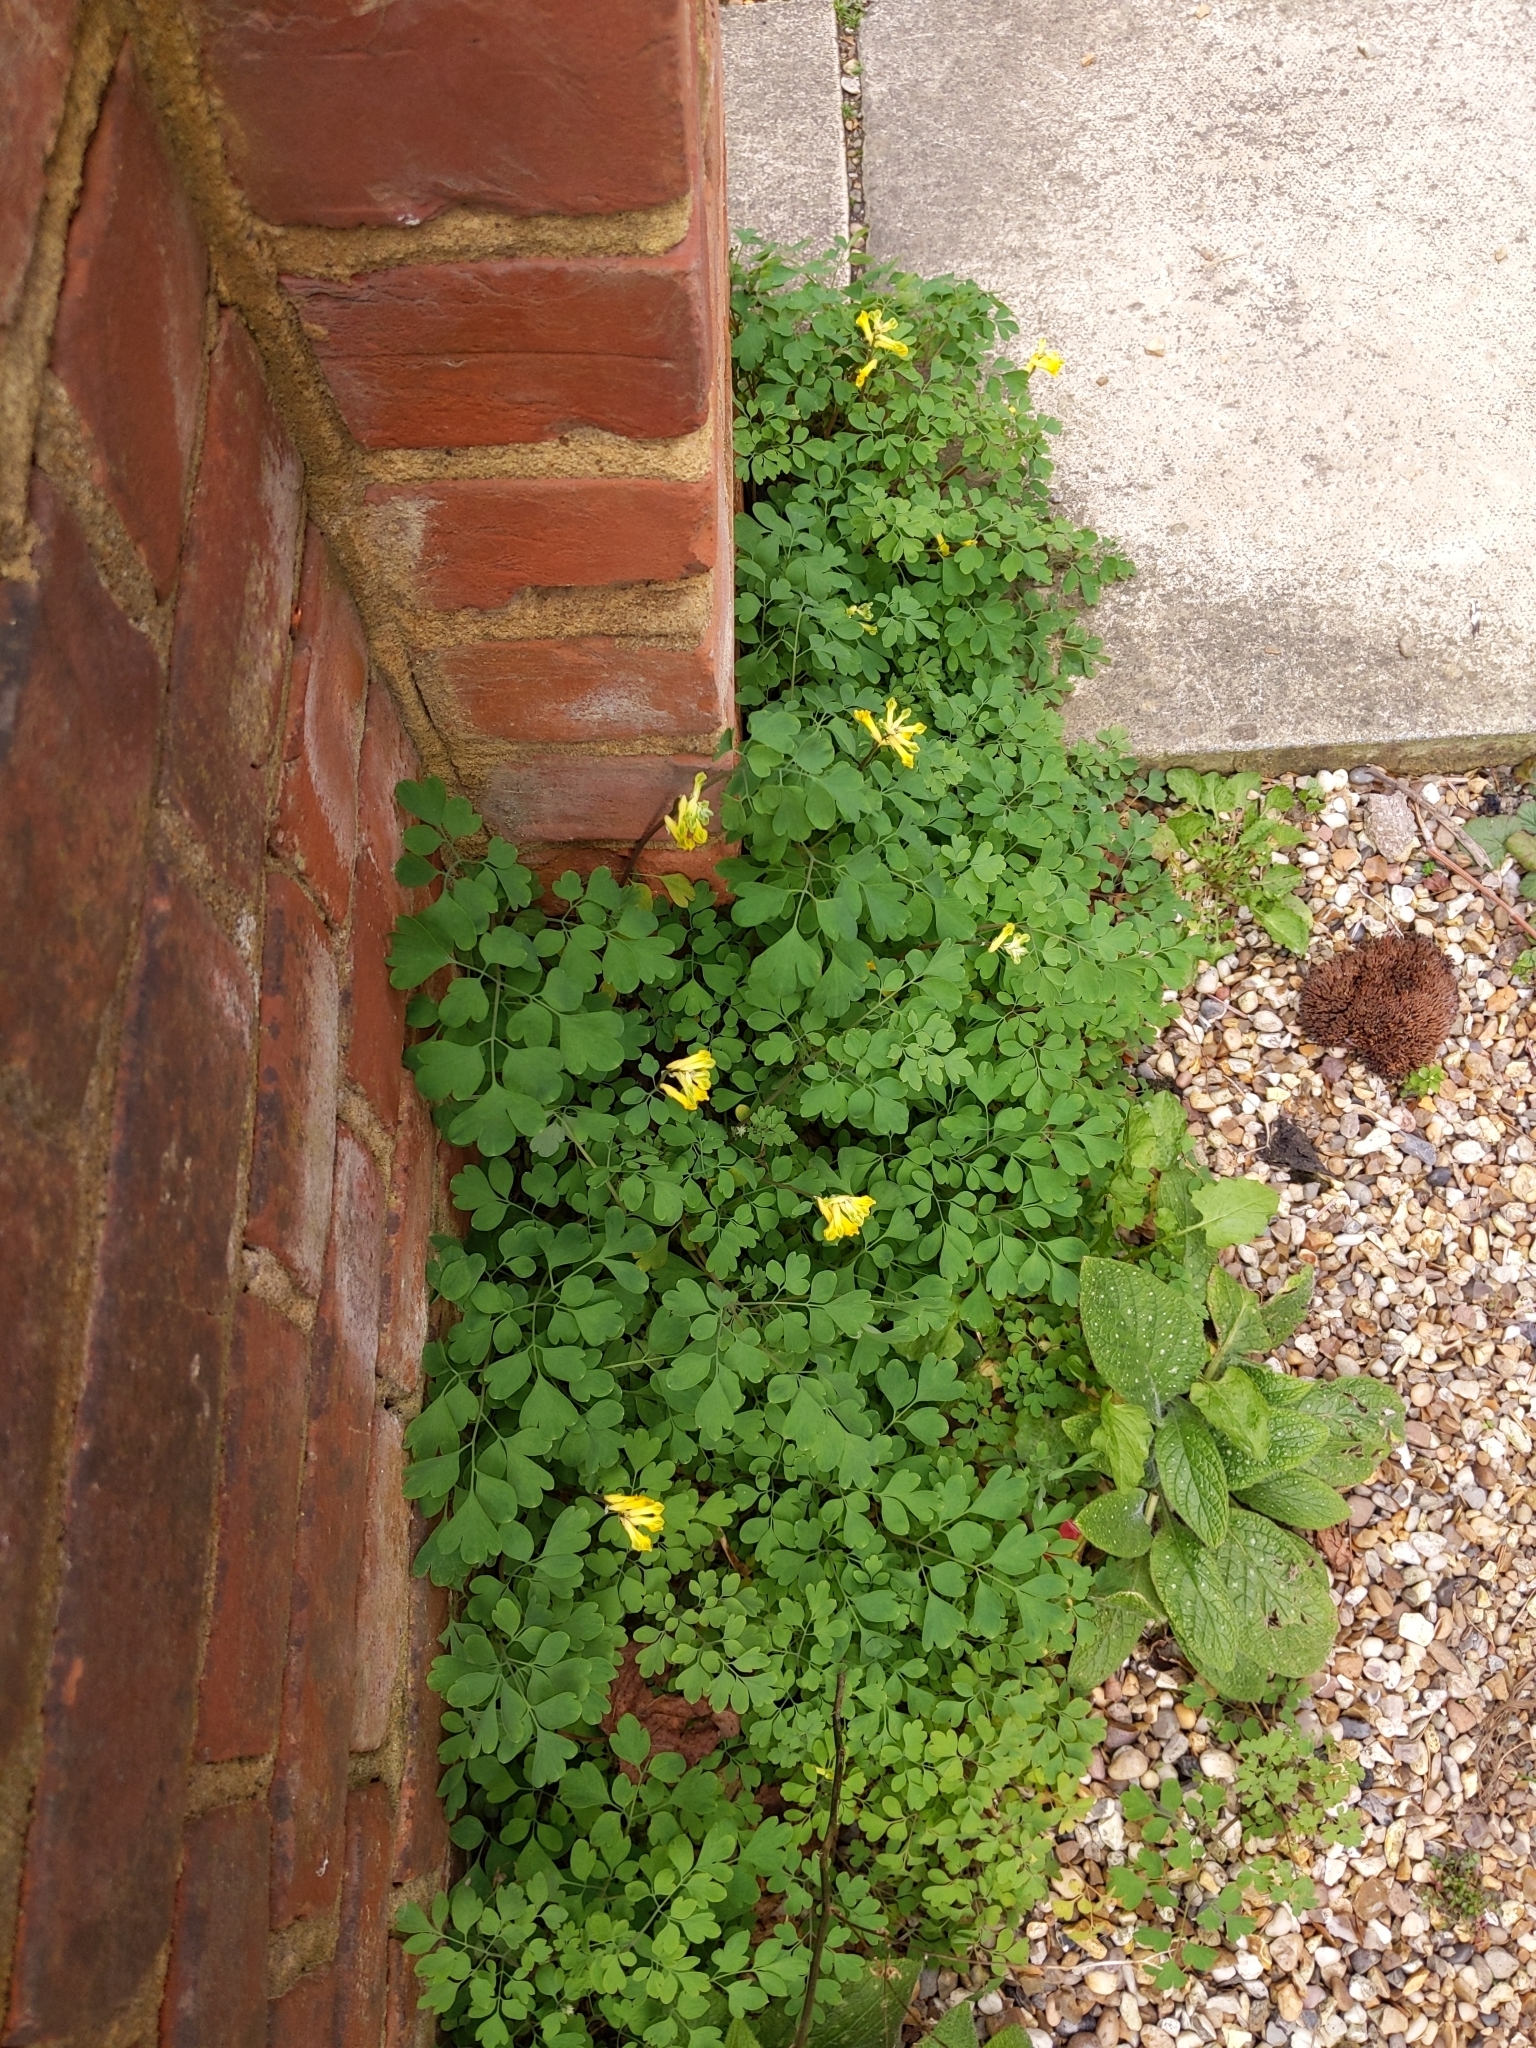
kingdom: Plantae
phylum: Tracheophyta
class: Magnoliopsida
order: Ranunculales
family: Papaveraceae
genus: Pseudofumaria
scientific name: Pseudofumaria lutea
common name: Yellow corydalis
